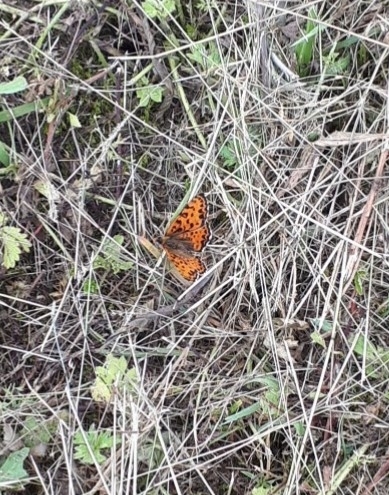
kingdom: Animalia
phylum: Arthropoda
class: Insecta
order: Lepidoptera
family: Nymphalidae
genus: Melitaea
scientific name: Melitaea didyma
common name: Spotted fritillary
